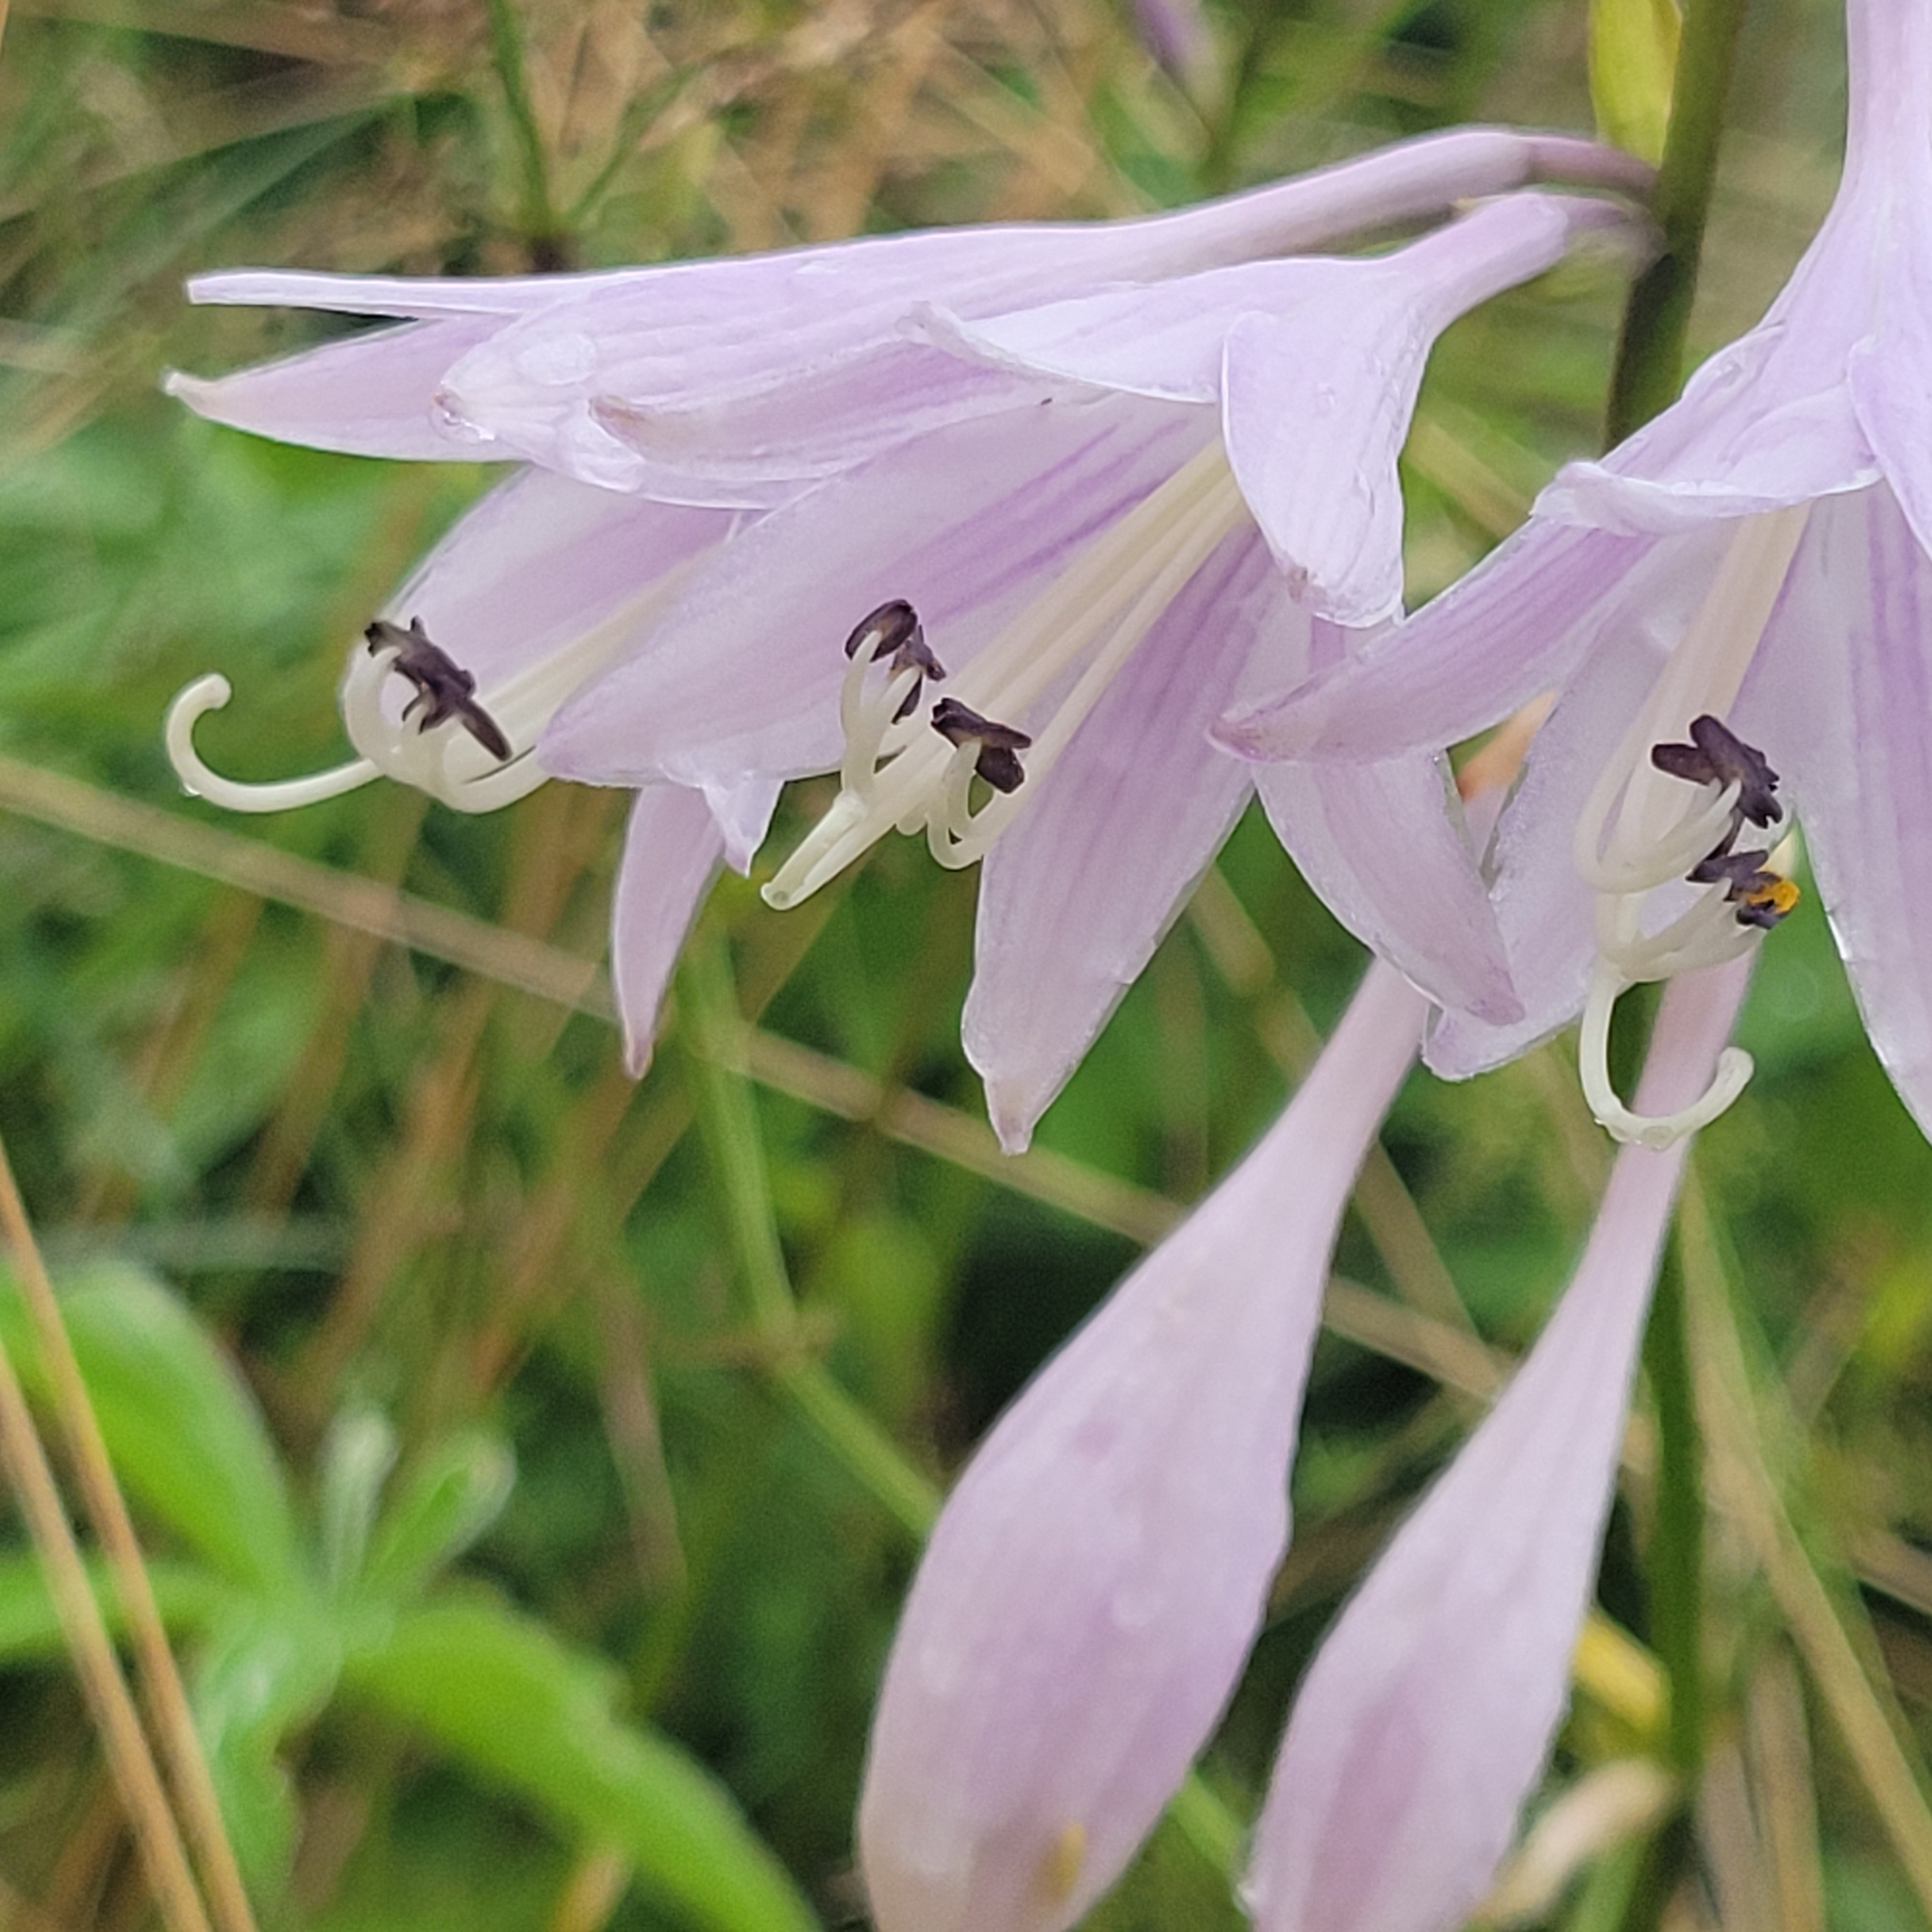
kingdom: Plantae
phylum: Tracheophyta
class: Magnoliopsida
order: Asterales
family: Campanulaceae
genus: Campanula
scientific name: Campanula rapunculoides
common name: Creeping bellflower
